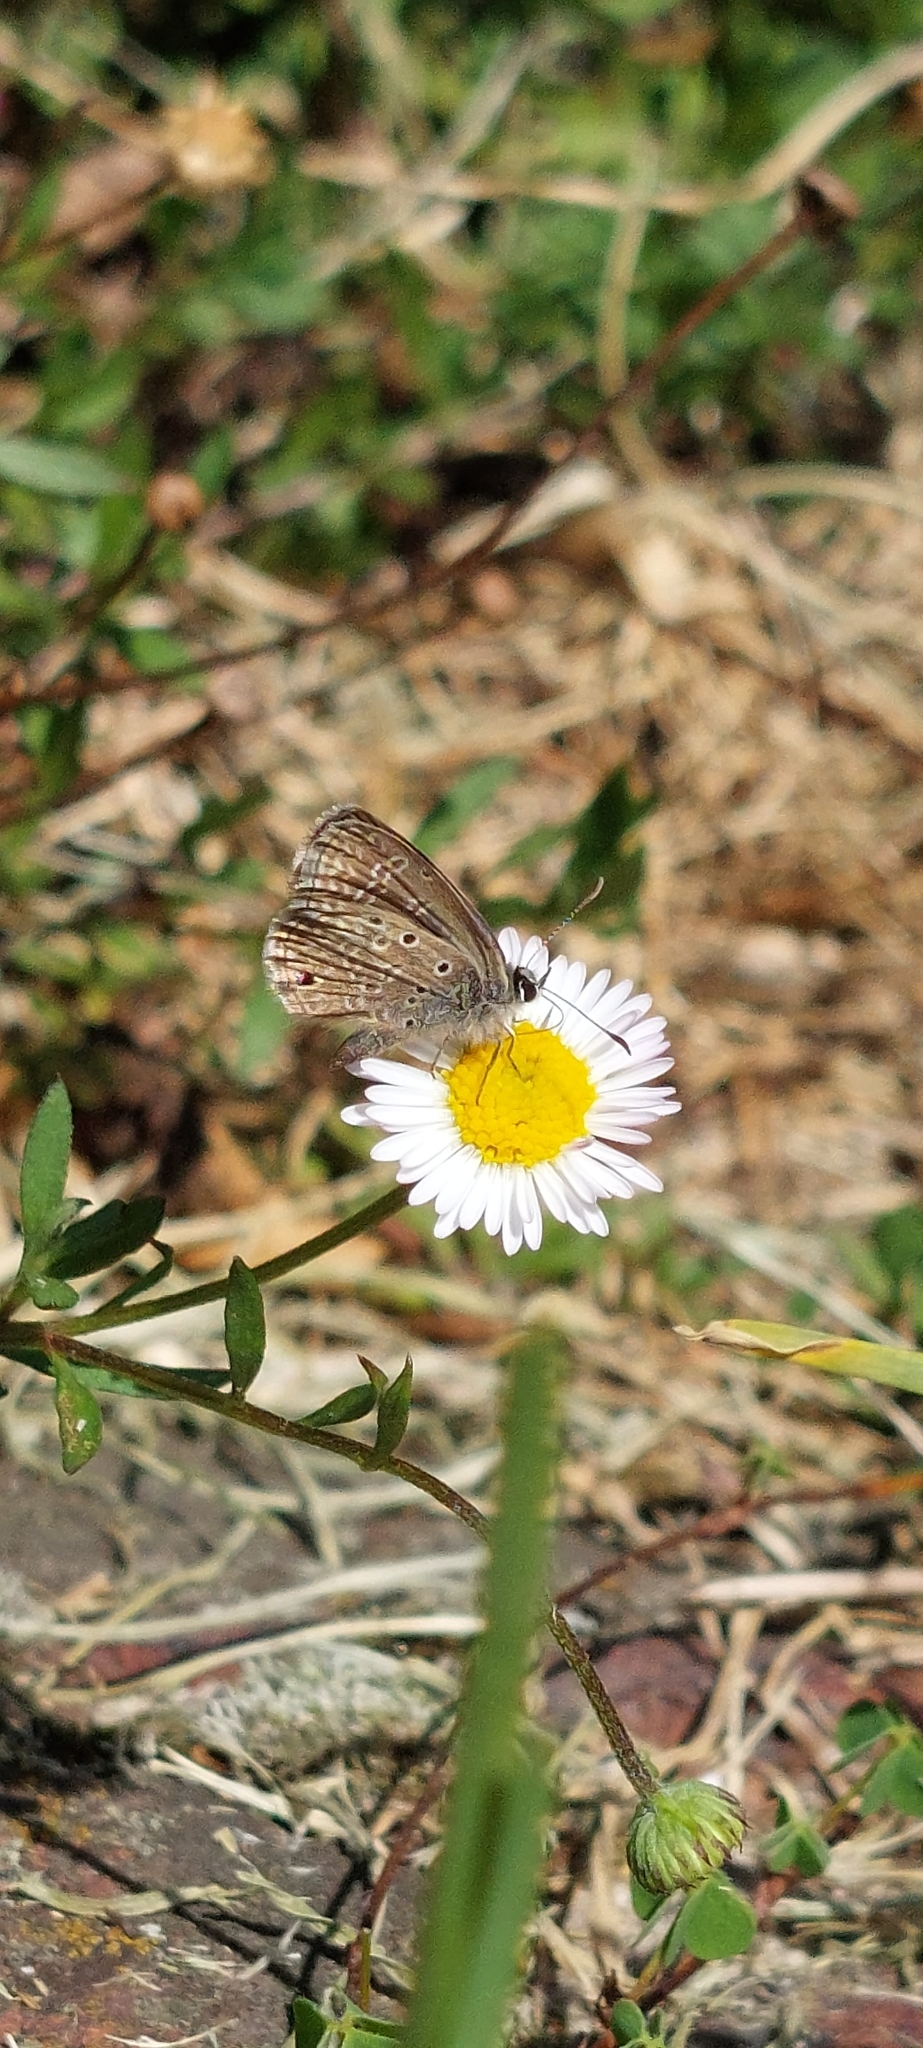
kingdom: Animalia
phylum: Arthropoda
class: Insecta
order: Lepidoptera
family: Lycaenidae
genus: Hemiargus
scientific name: Hemiargus hanno
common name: Common blue
